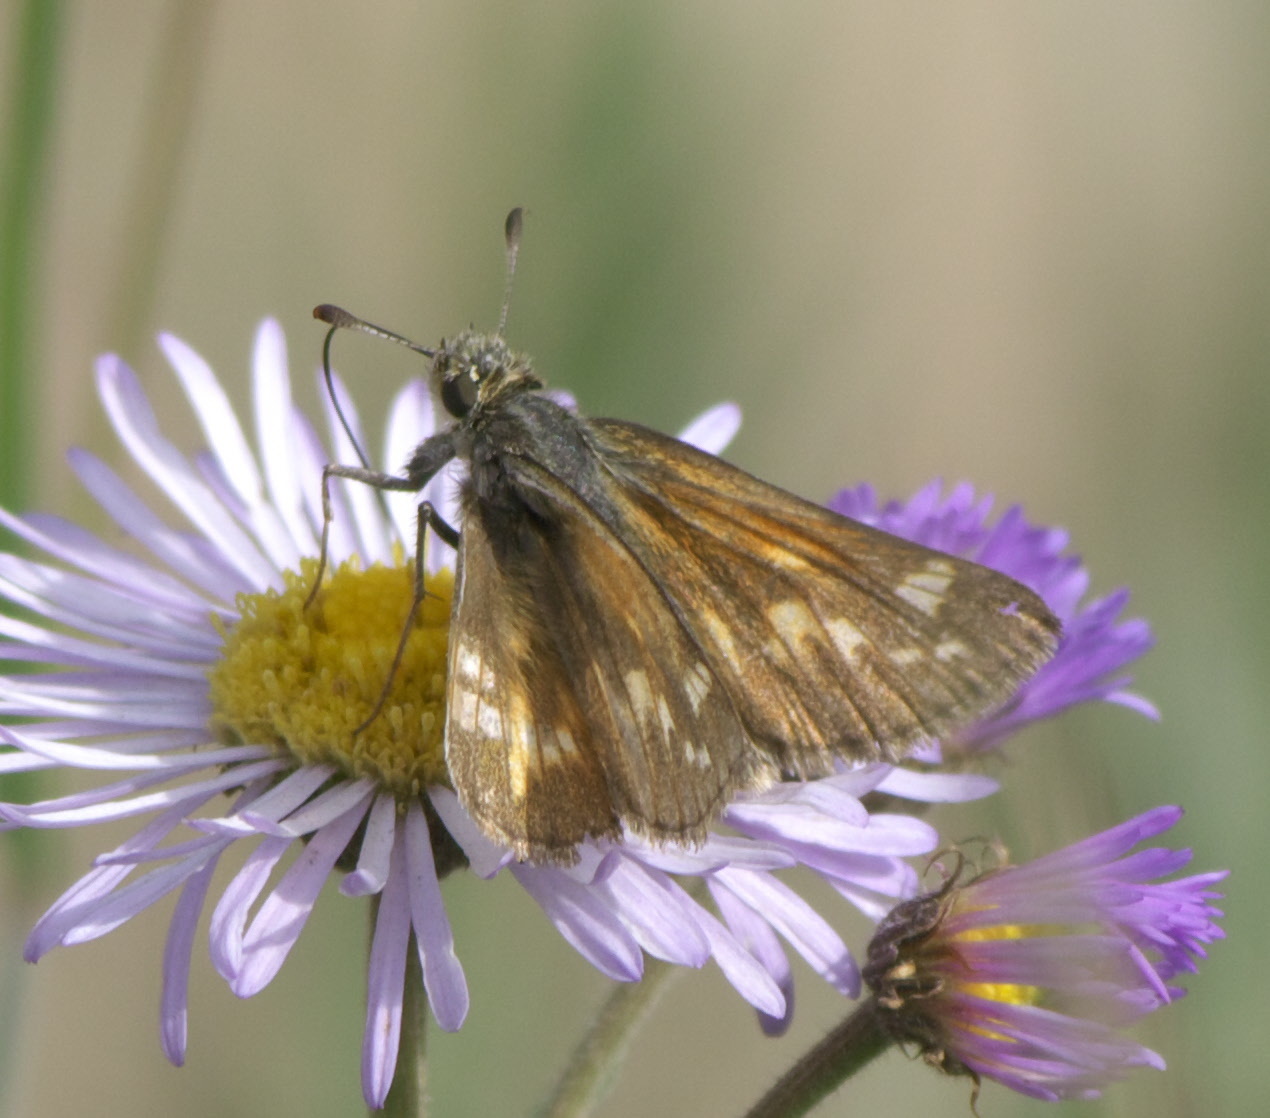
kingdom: Animalia
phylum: Arthropoda
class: Insecta
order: Lepidoptera
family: Hesperiidae
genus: Atalopedes
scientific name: Atalopedes
